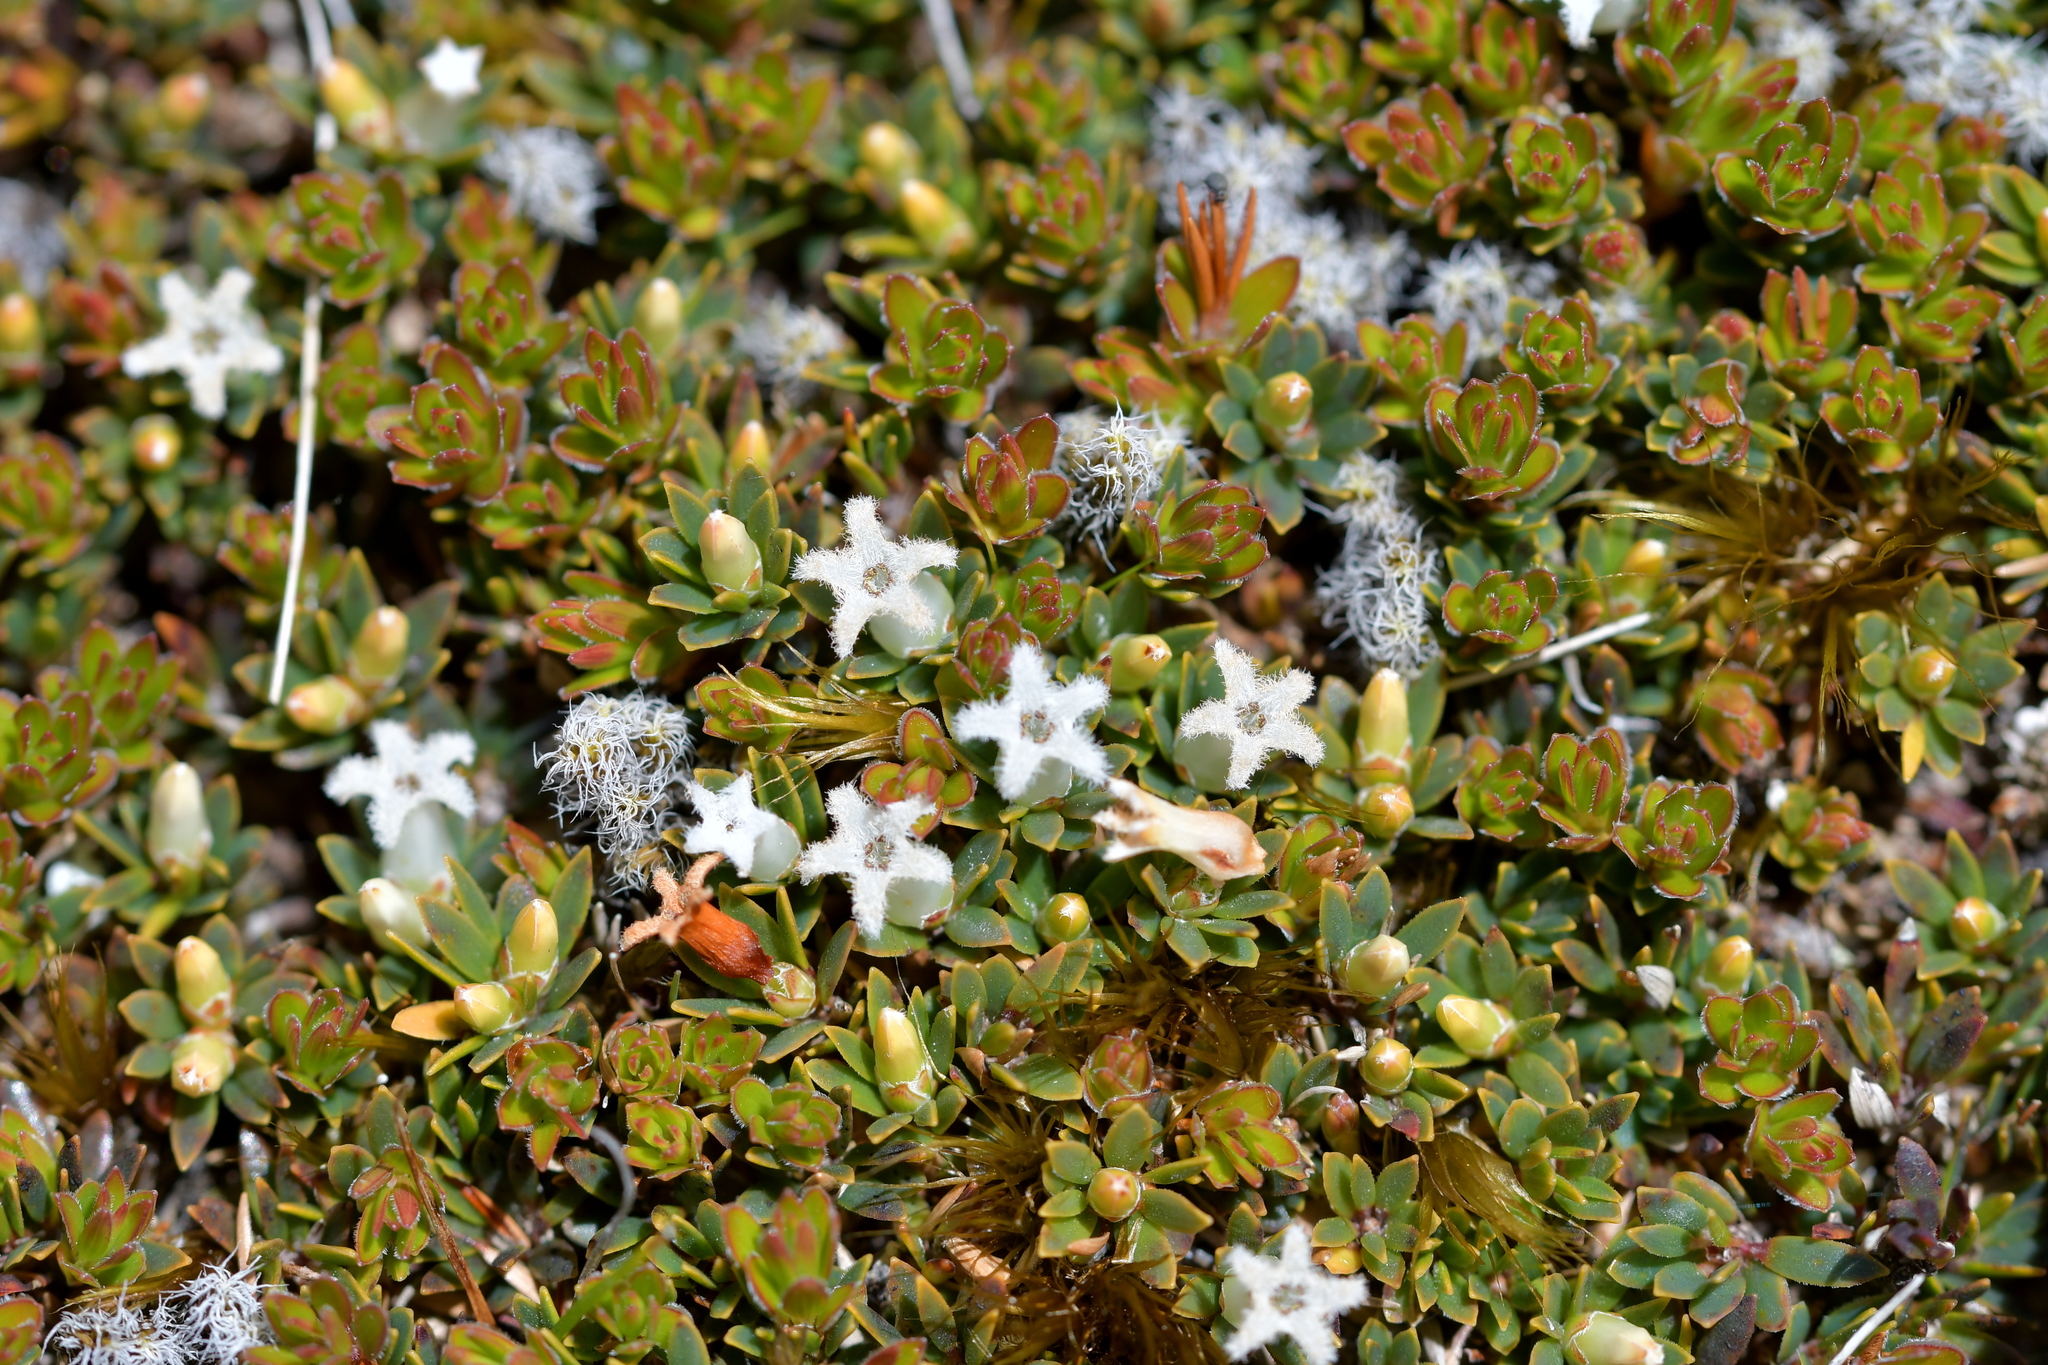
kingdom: Plantae
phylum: Tracheophyta
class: Magnoliopsida
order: Ericales
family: Ericaceae
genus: Pentachondra
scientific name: Pentachondra pumila
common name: Carpet-heath
